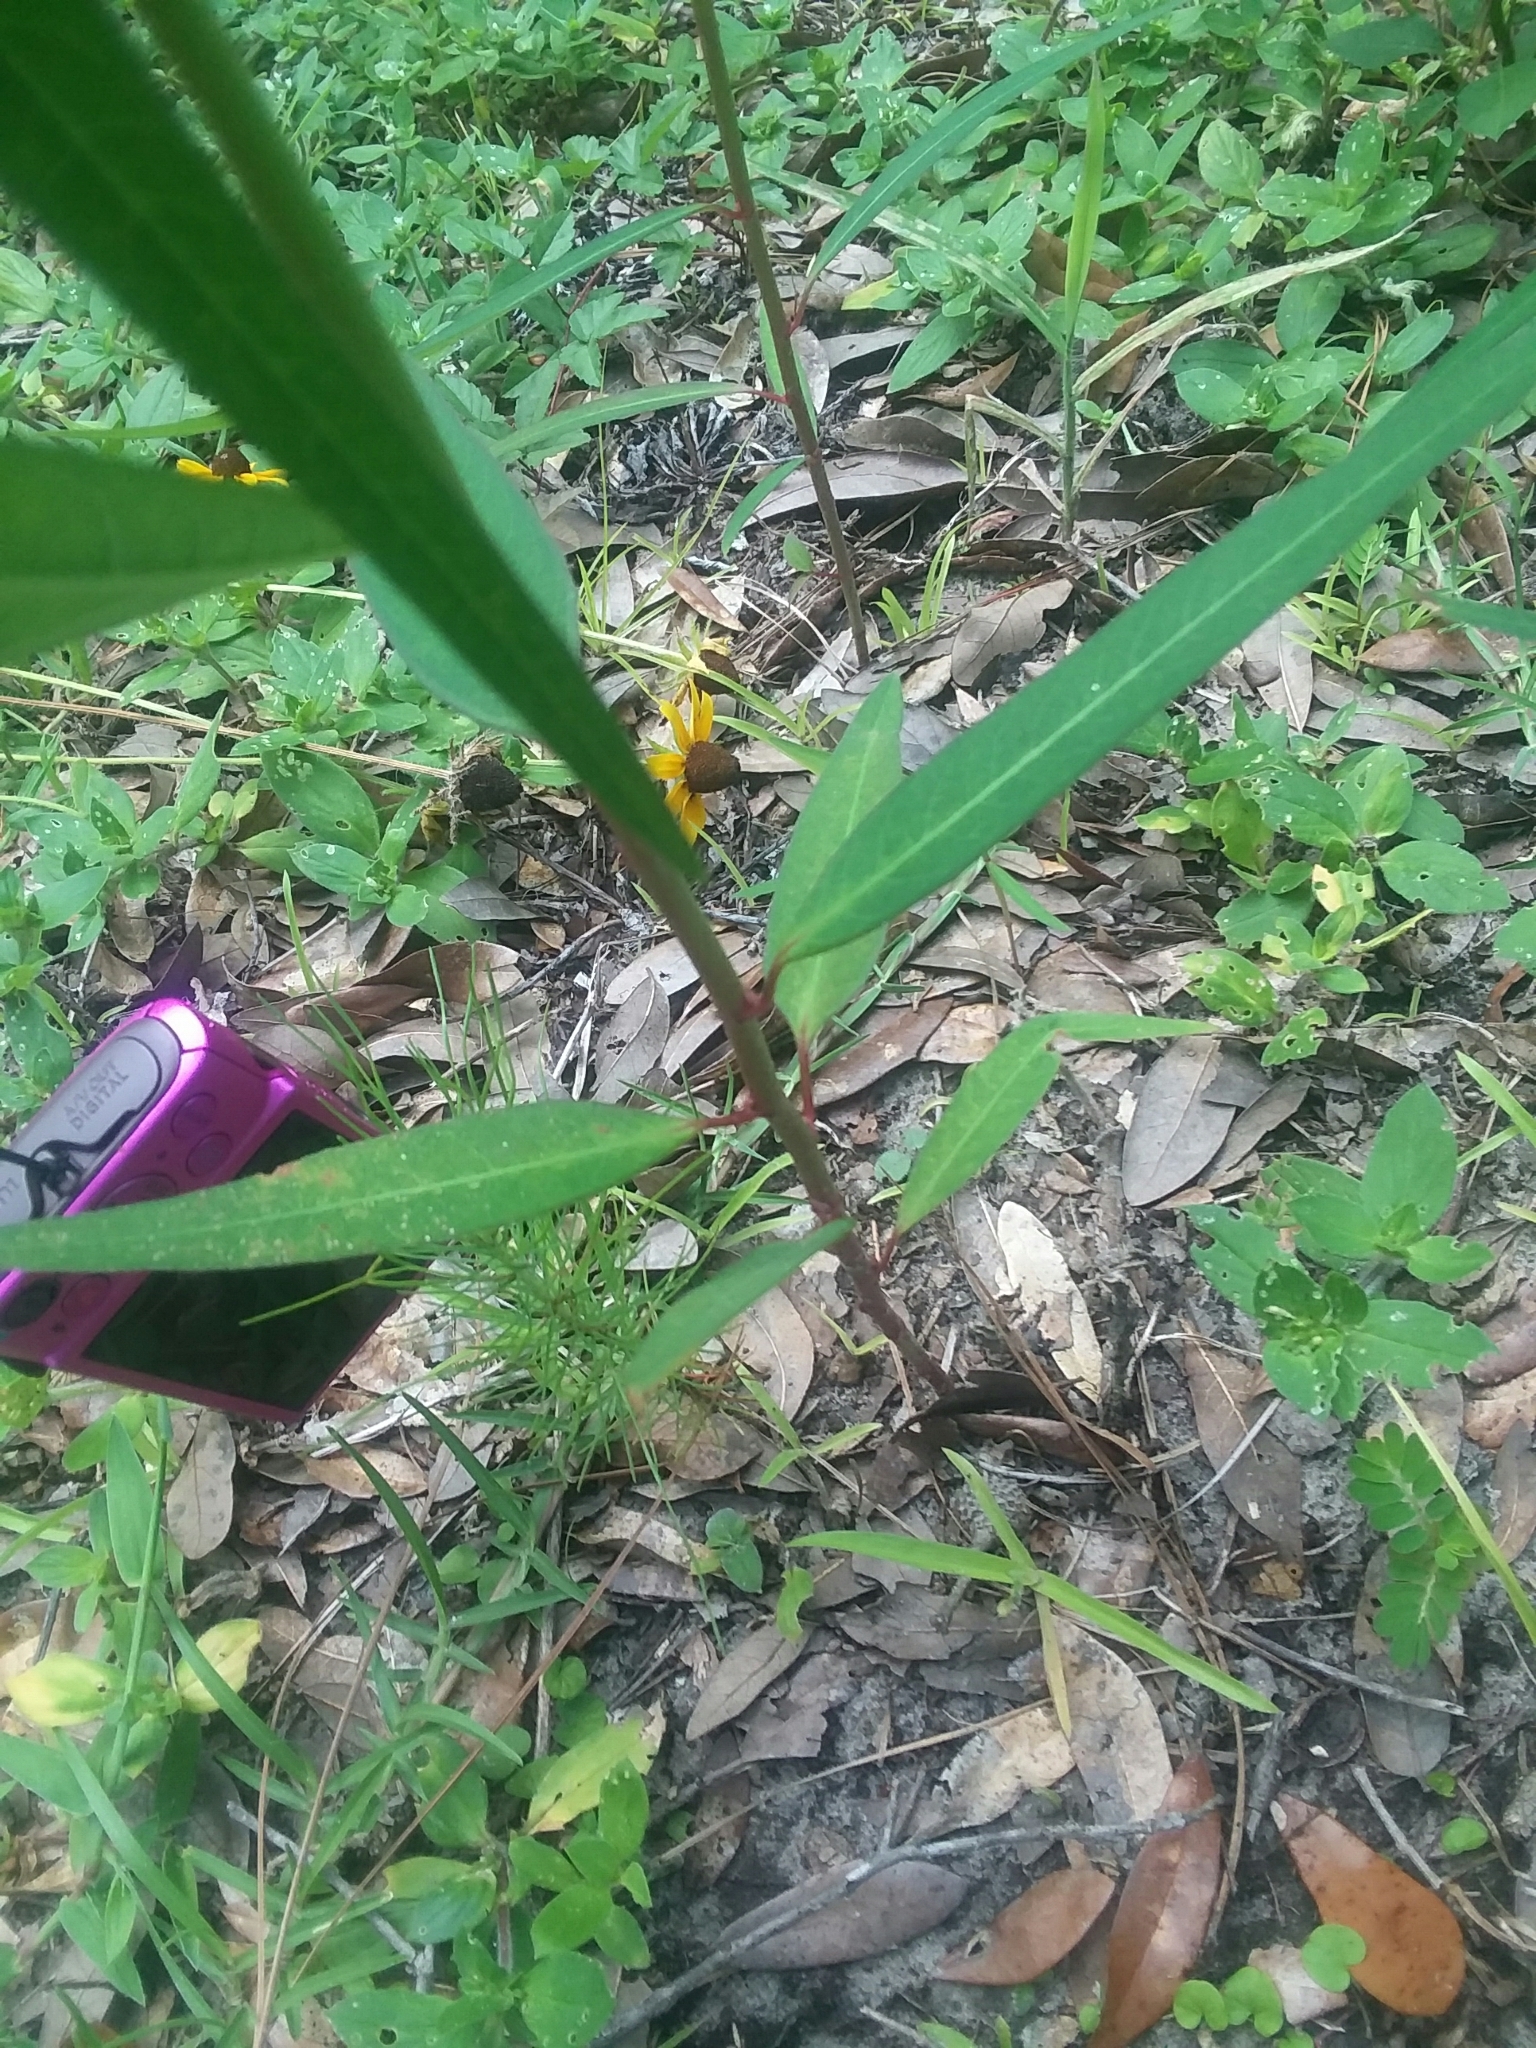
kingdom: Plantae
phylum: Tracheophyta
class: Magnoliopsida
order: Malpighiales
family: Euphorbiaceae
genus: Euphorbia
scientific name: Euphorbia heterophylla
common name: Mexican fireplant
